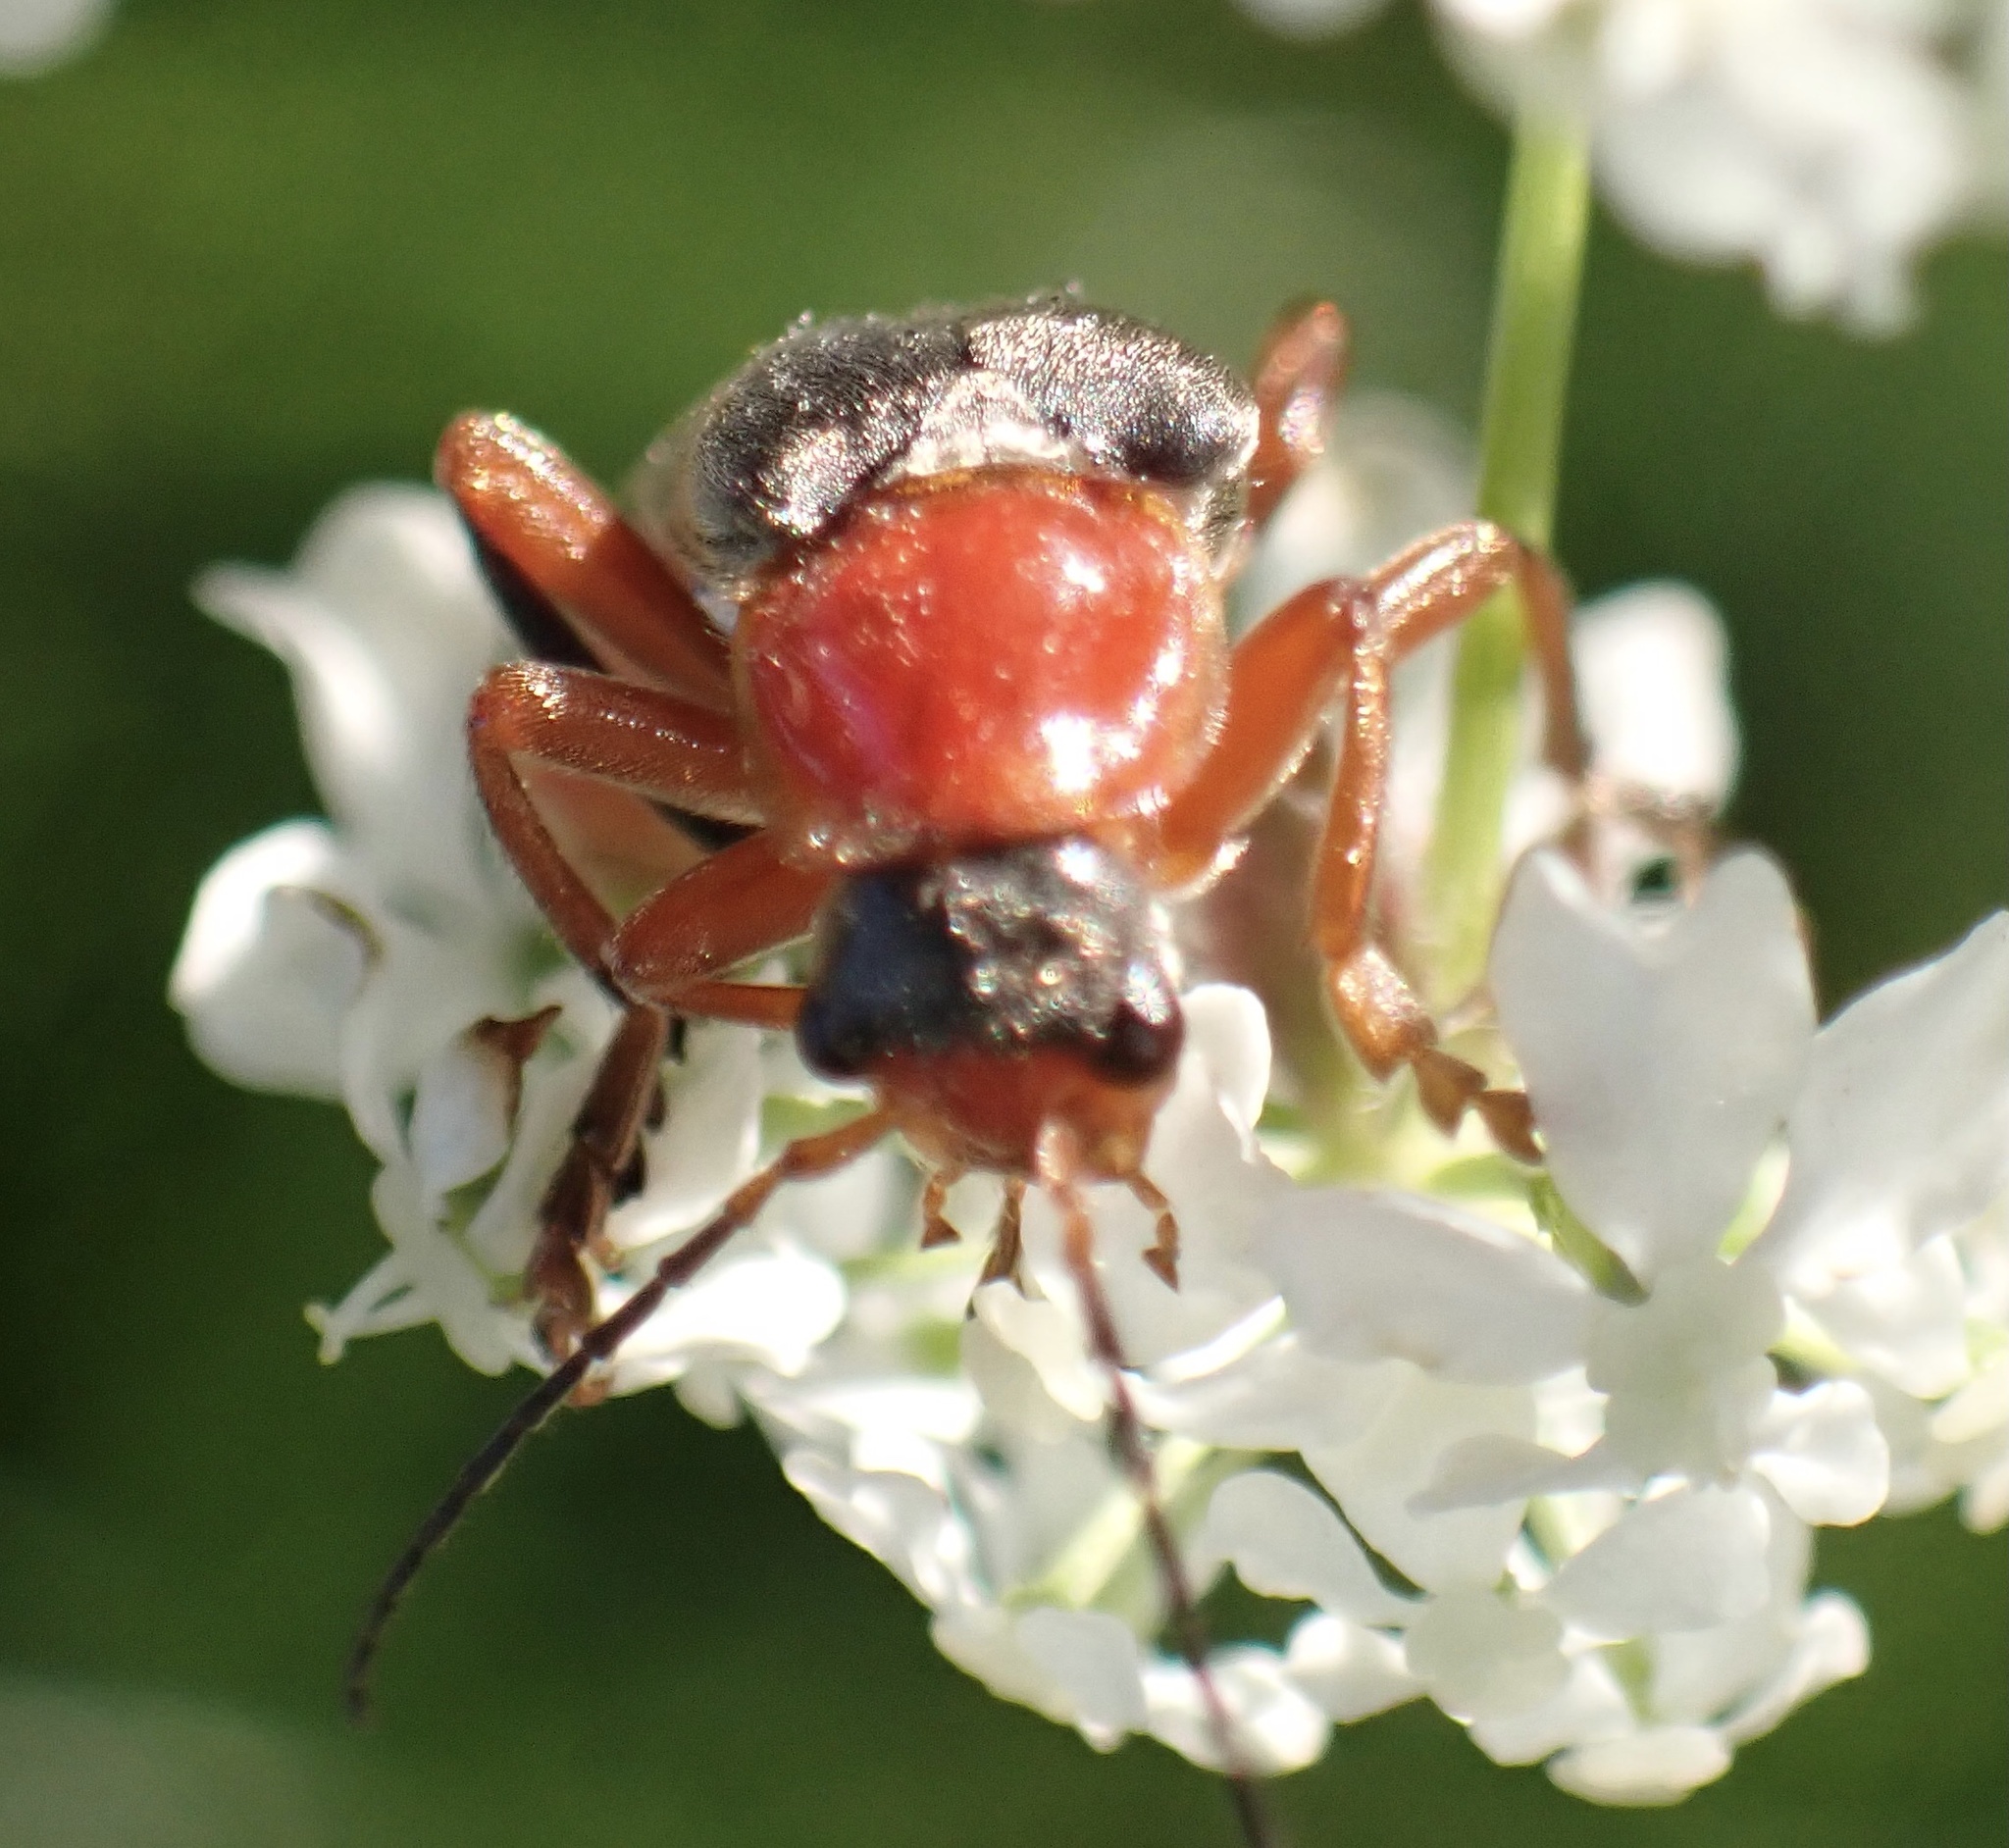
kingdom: Animalia
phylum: Arthropoda
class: Insecta
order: Coleoptera
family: Cantharidae
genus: Cantharis
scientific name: Cantharis pellucida
